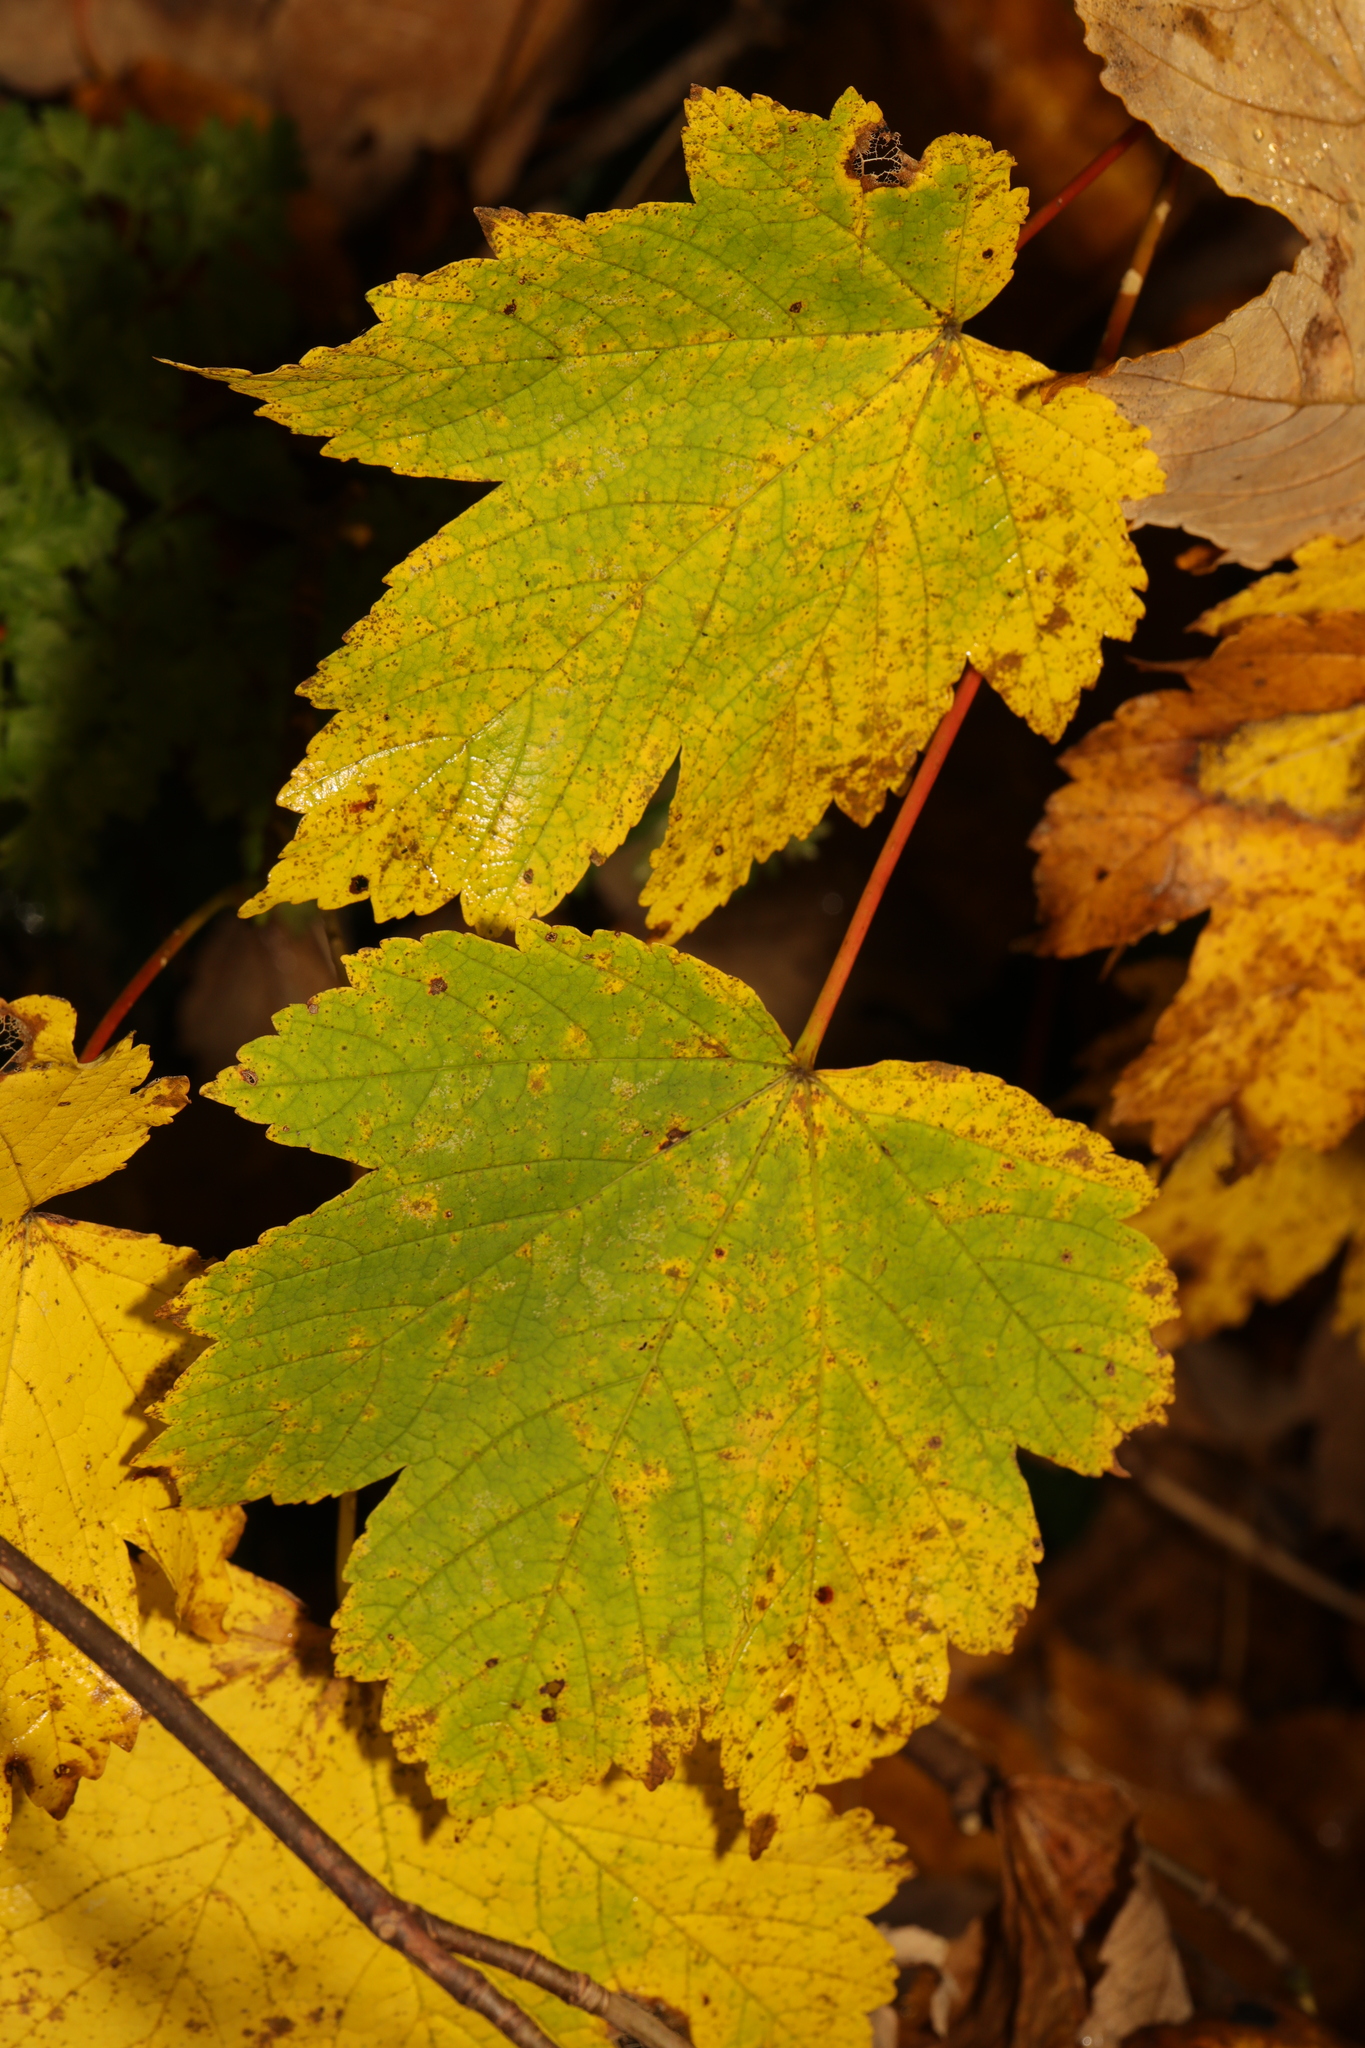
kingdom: Plantae
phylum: Tracheophyta
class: Magnoliopsida
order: Sapindales
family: Sapindaceae
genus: Acer
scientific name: Acer pseudoplatanus
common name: Sycamore
